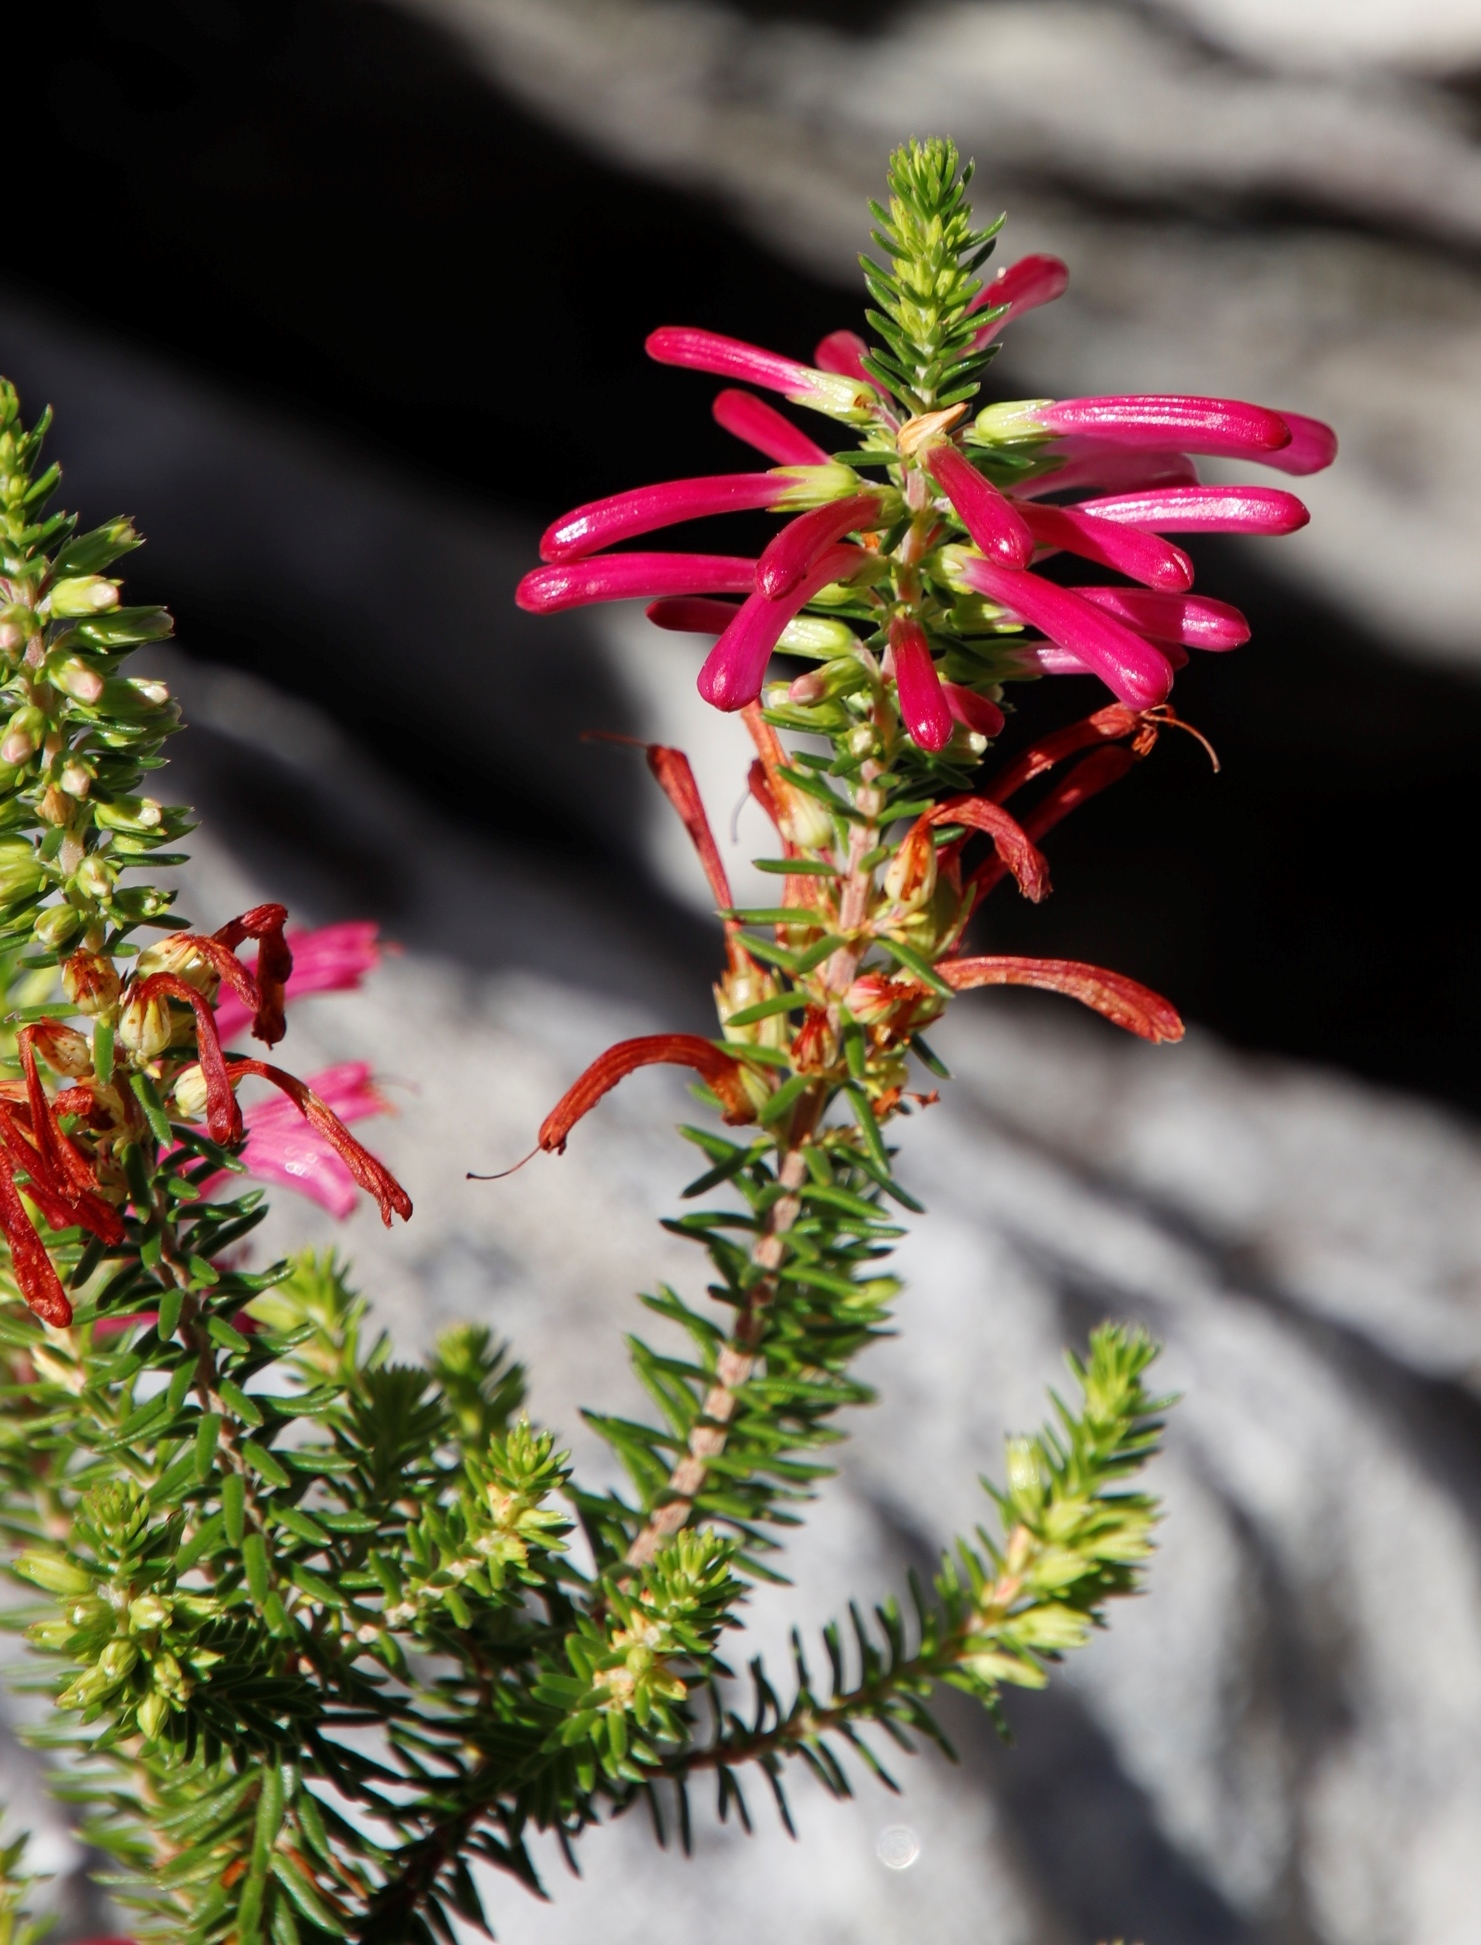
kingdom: Plantae
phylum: Tracheophyta
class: Magnoliopsida
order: Ericales
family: Ericaceae
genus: Erica
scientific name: Erica abietina
